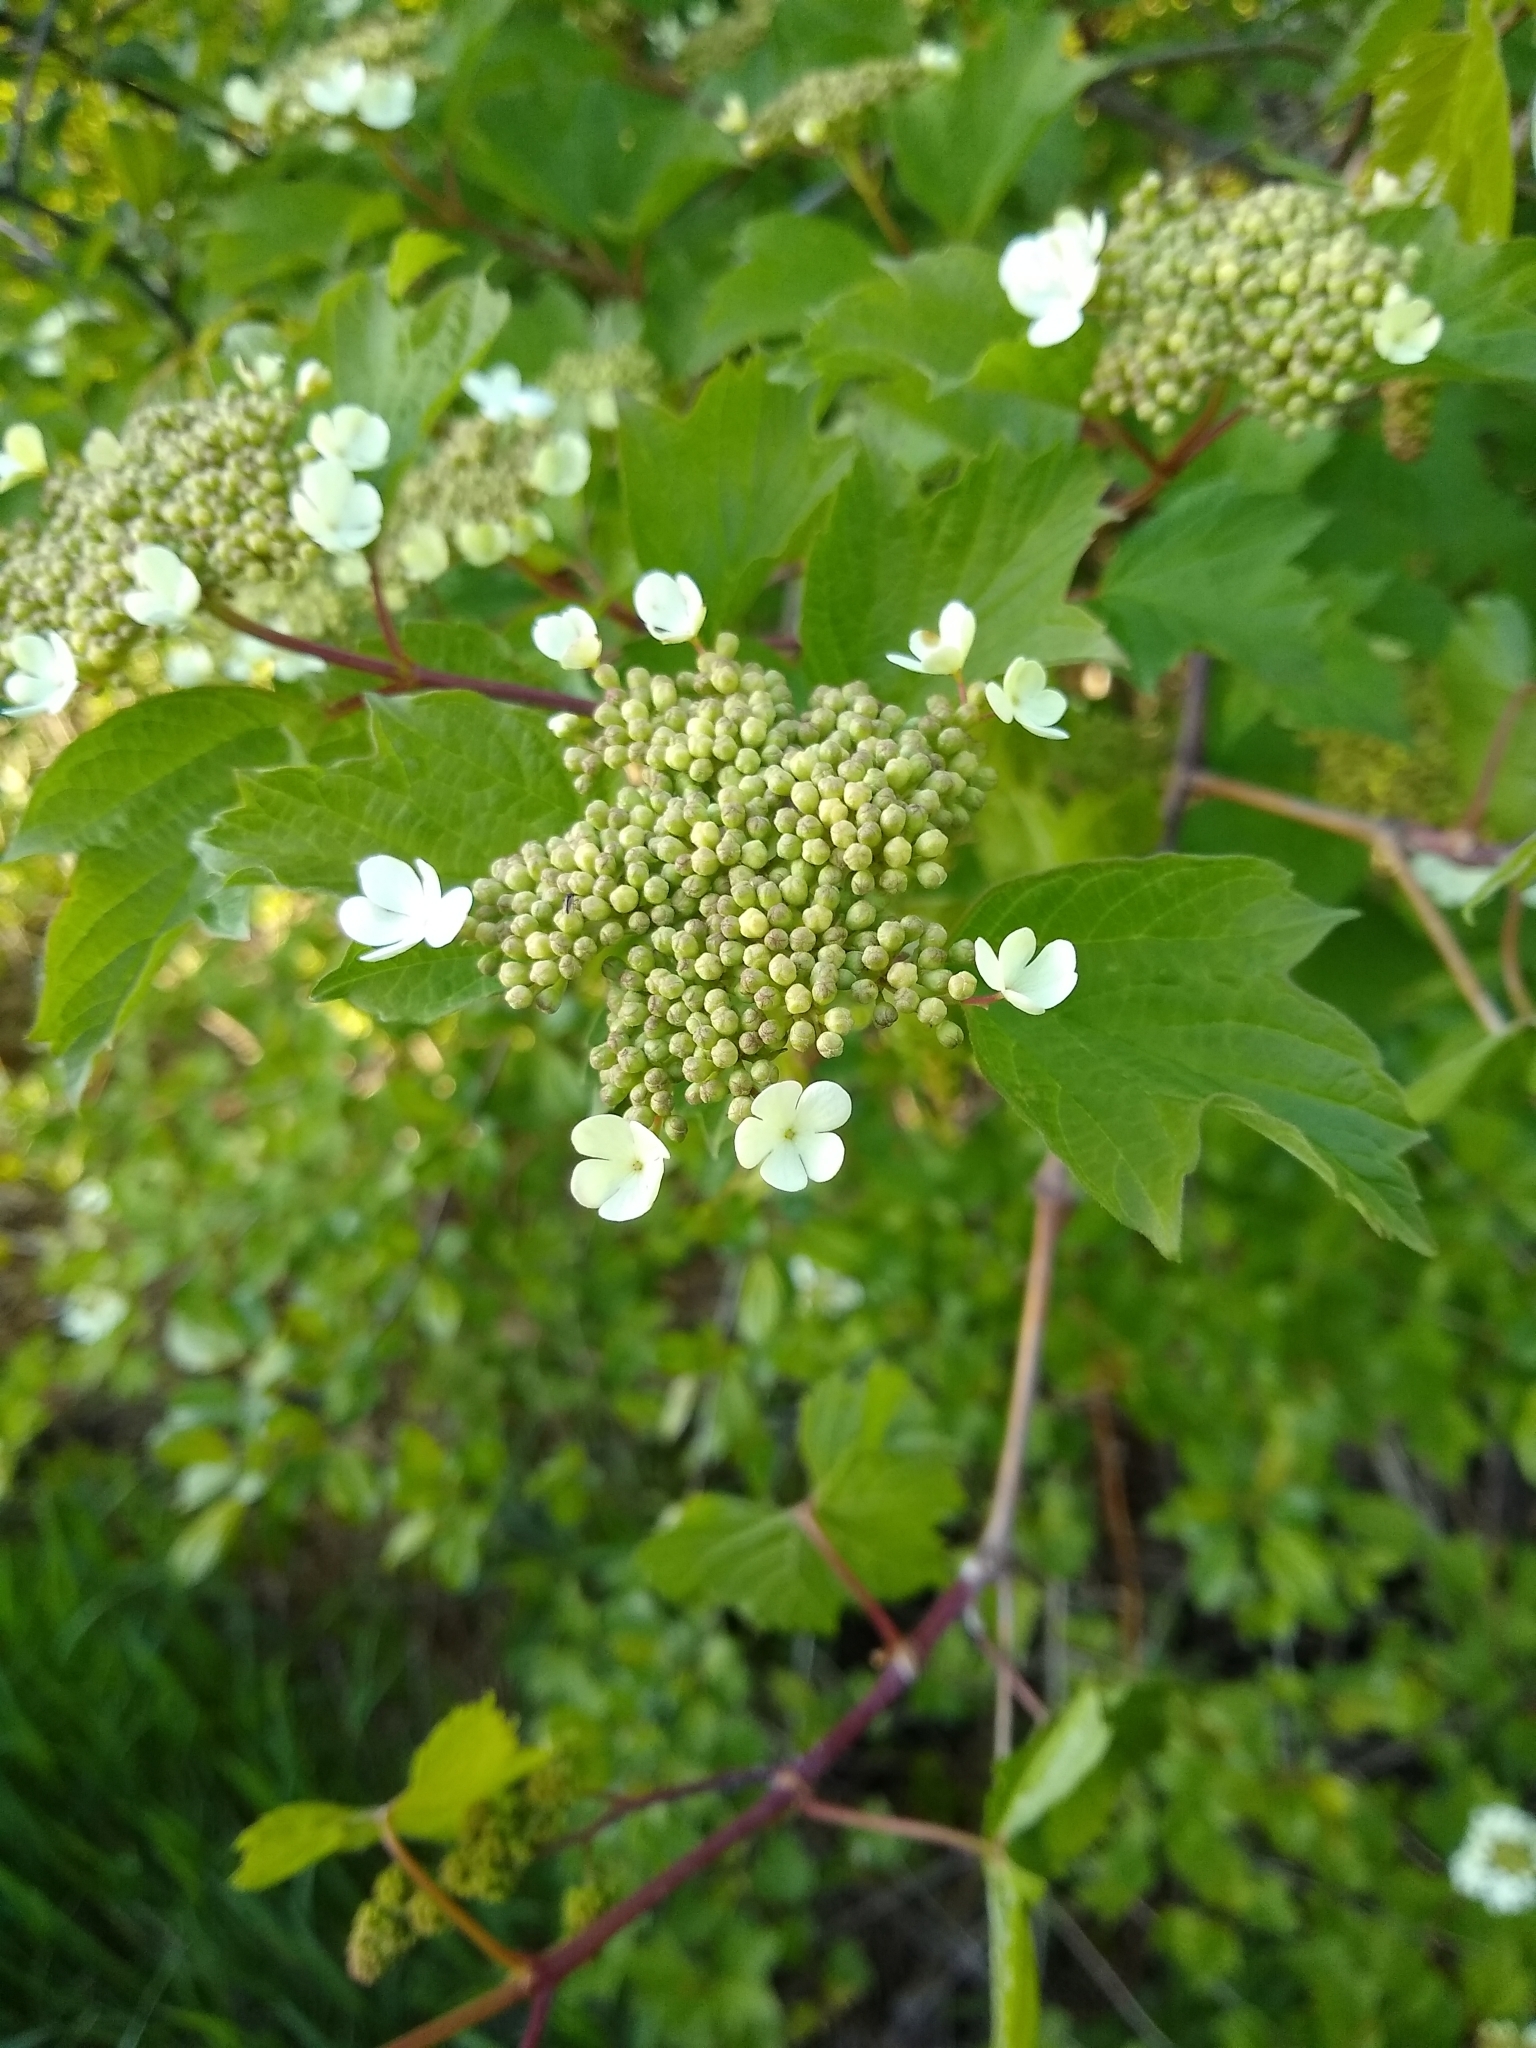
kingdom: Plantae
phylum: Tracheophyta
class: Magnoliopsida
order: Dipsacales
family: Viburnaceae
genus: Viburnum
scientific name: Viburnum opulus
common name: Guelder-rose
